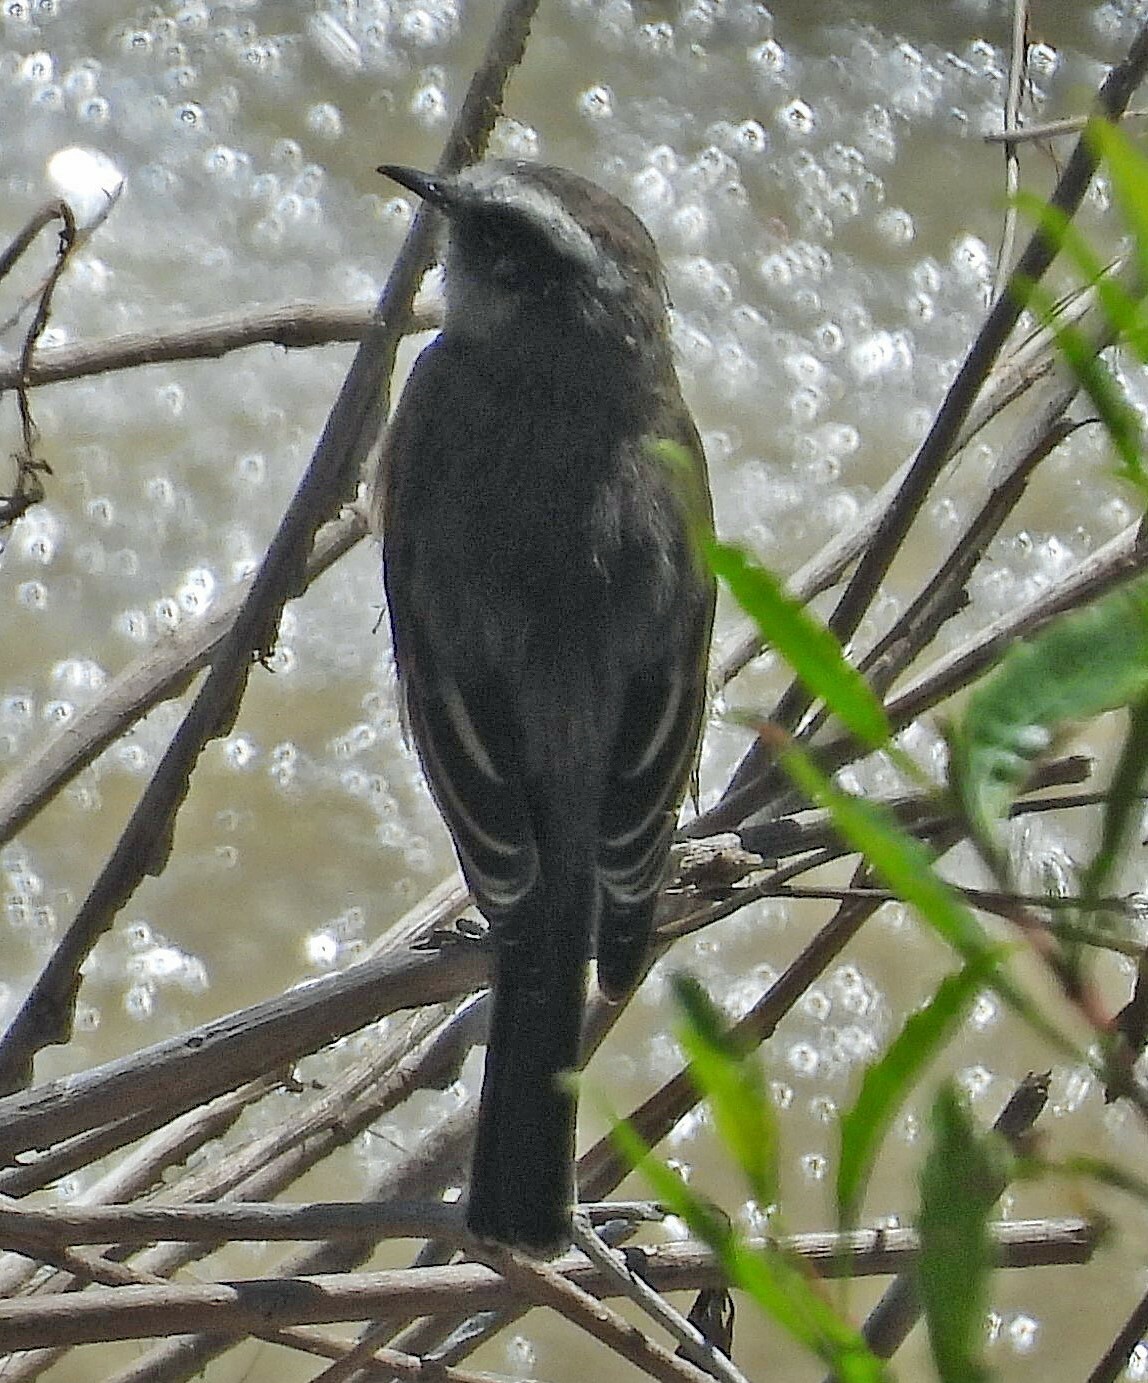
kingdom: Animalia
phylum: Chordata
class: Aves
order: Passeriformes
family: Tyrannidae
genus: Ochthoeca
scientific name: Ochthoeca leucophrys
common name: White-browed chat-tyrant
